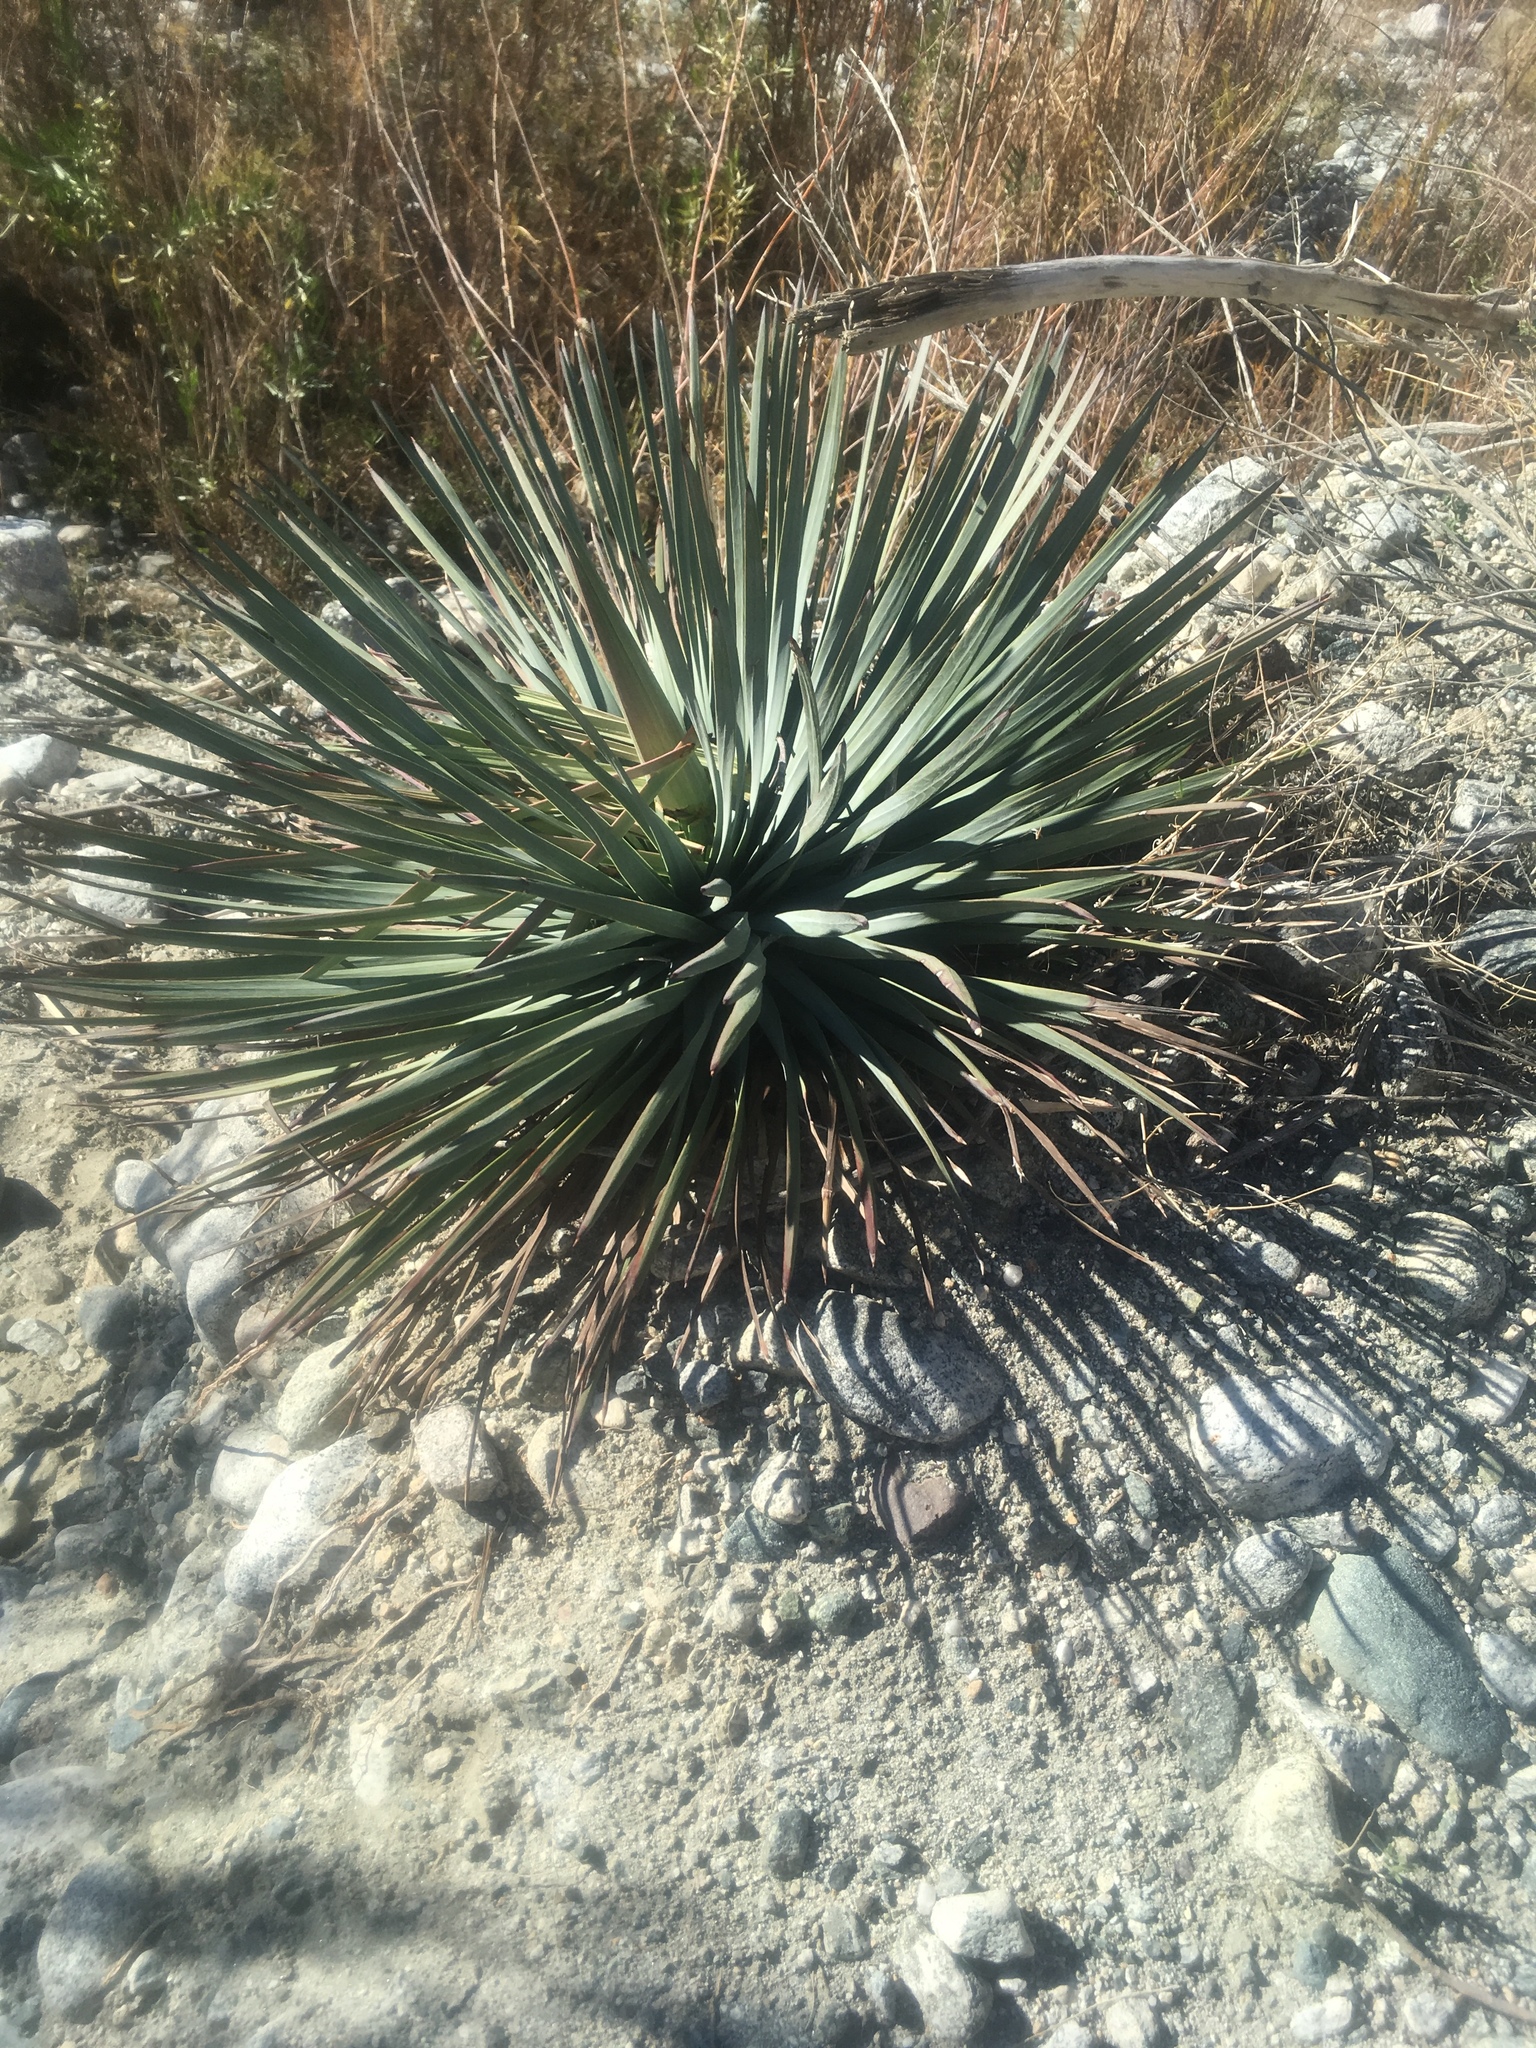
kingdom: Plantae
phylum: Tracheophyta
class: Liliopsida
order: Asparagales
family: Asparagaceae
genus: Hesperoyucca
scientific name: Hesperoyucca whipplei
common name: Our lord's-candle
